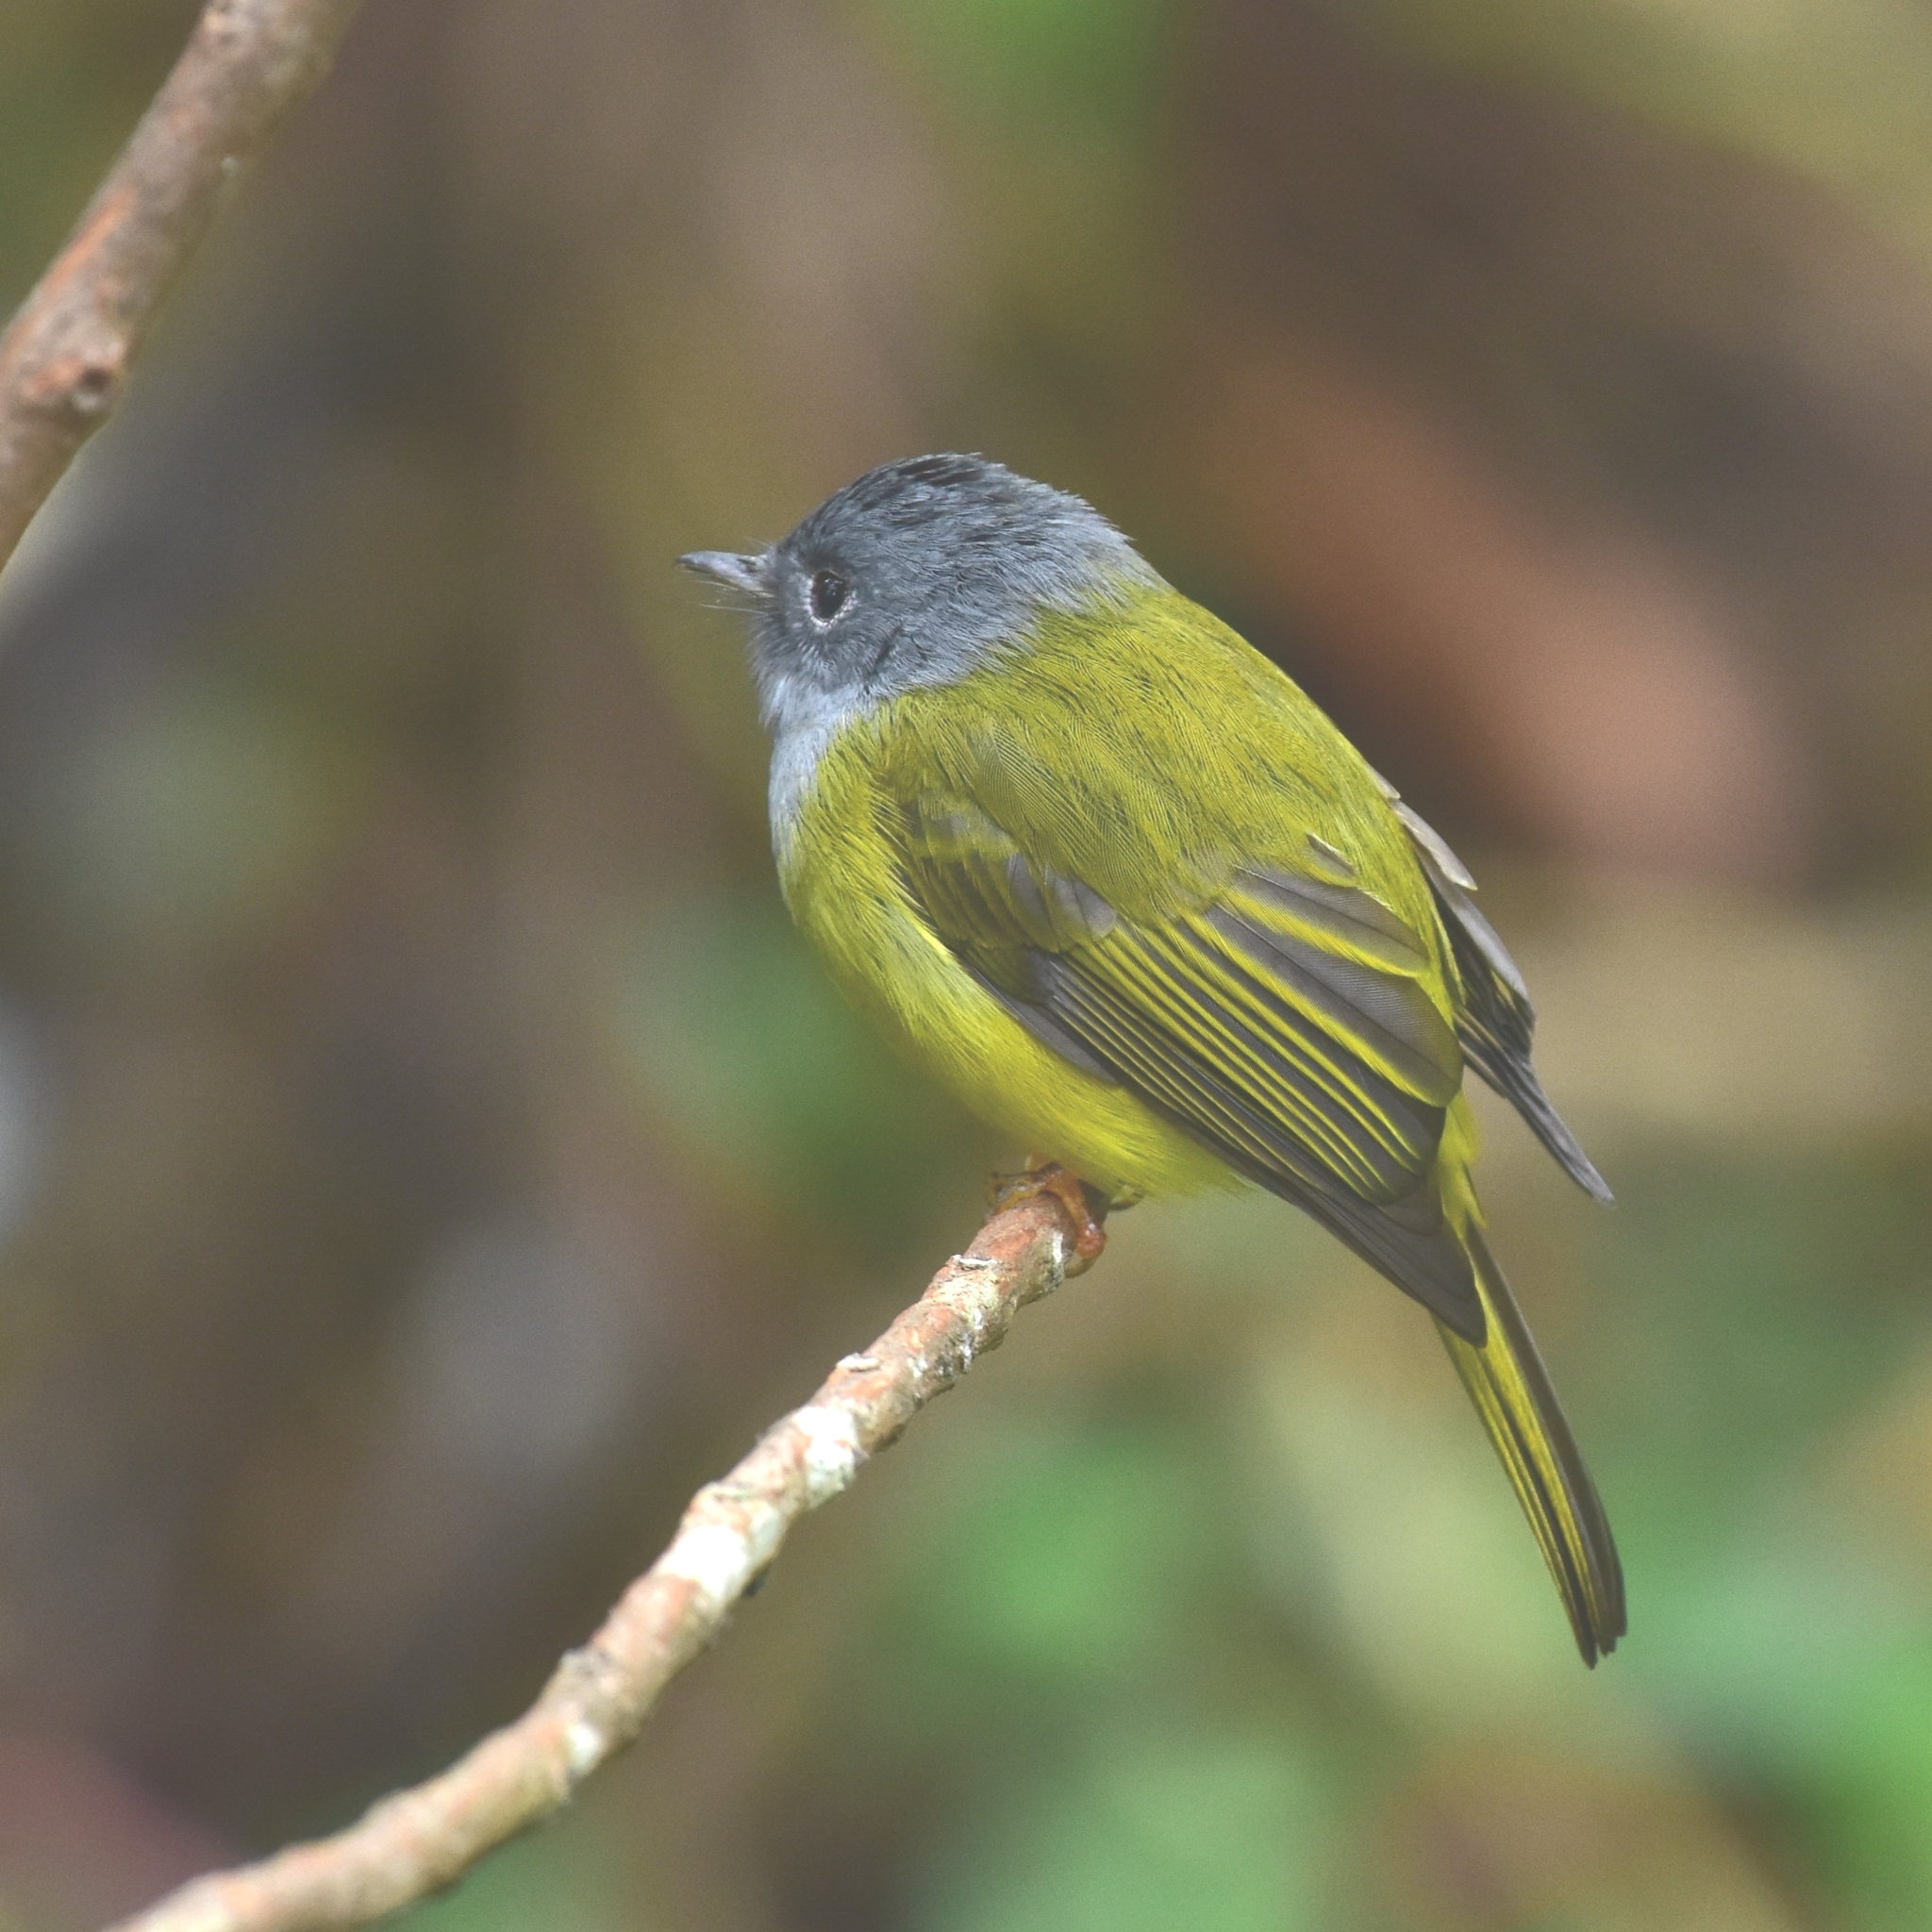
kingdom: Animalia
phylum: Chordata
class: Aves
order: Passeriformes
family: Stenostiridae
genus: Culicicapa
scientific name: Culicicapa ceylonensis
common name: Grey-headed canary-flycatcher
